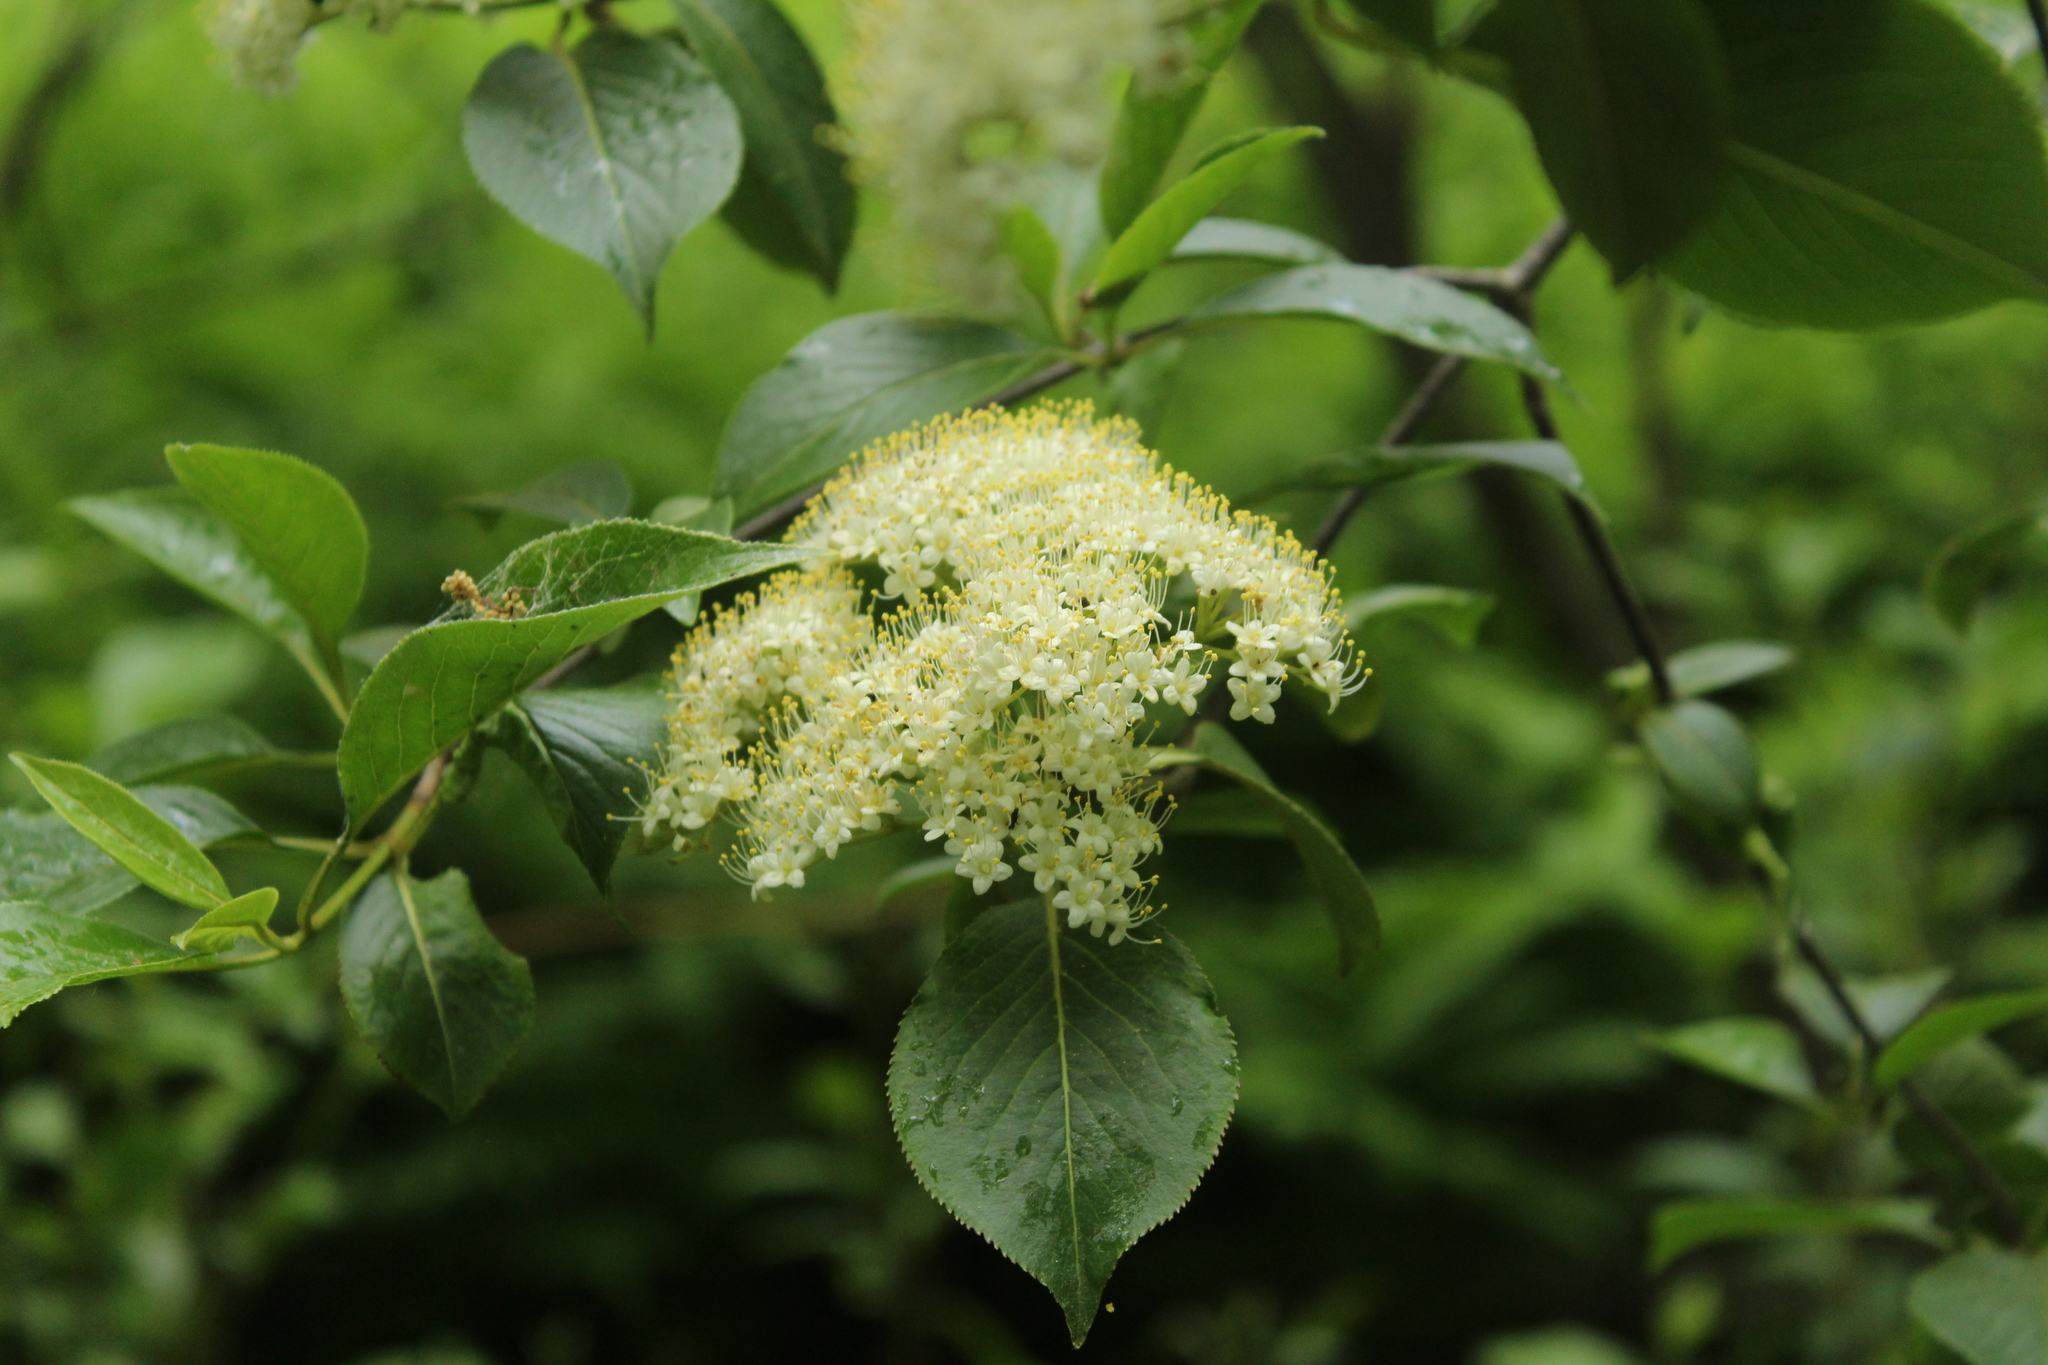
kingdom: Plantae
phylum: Tracheophyta
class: Magnoliopsida
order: Dipsacales
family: Viburnaceae
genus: Viburnum
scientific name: Viburnum lentago
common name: Black haw
